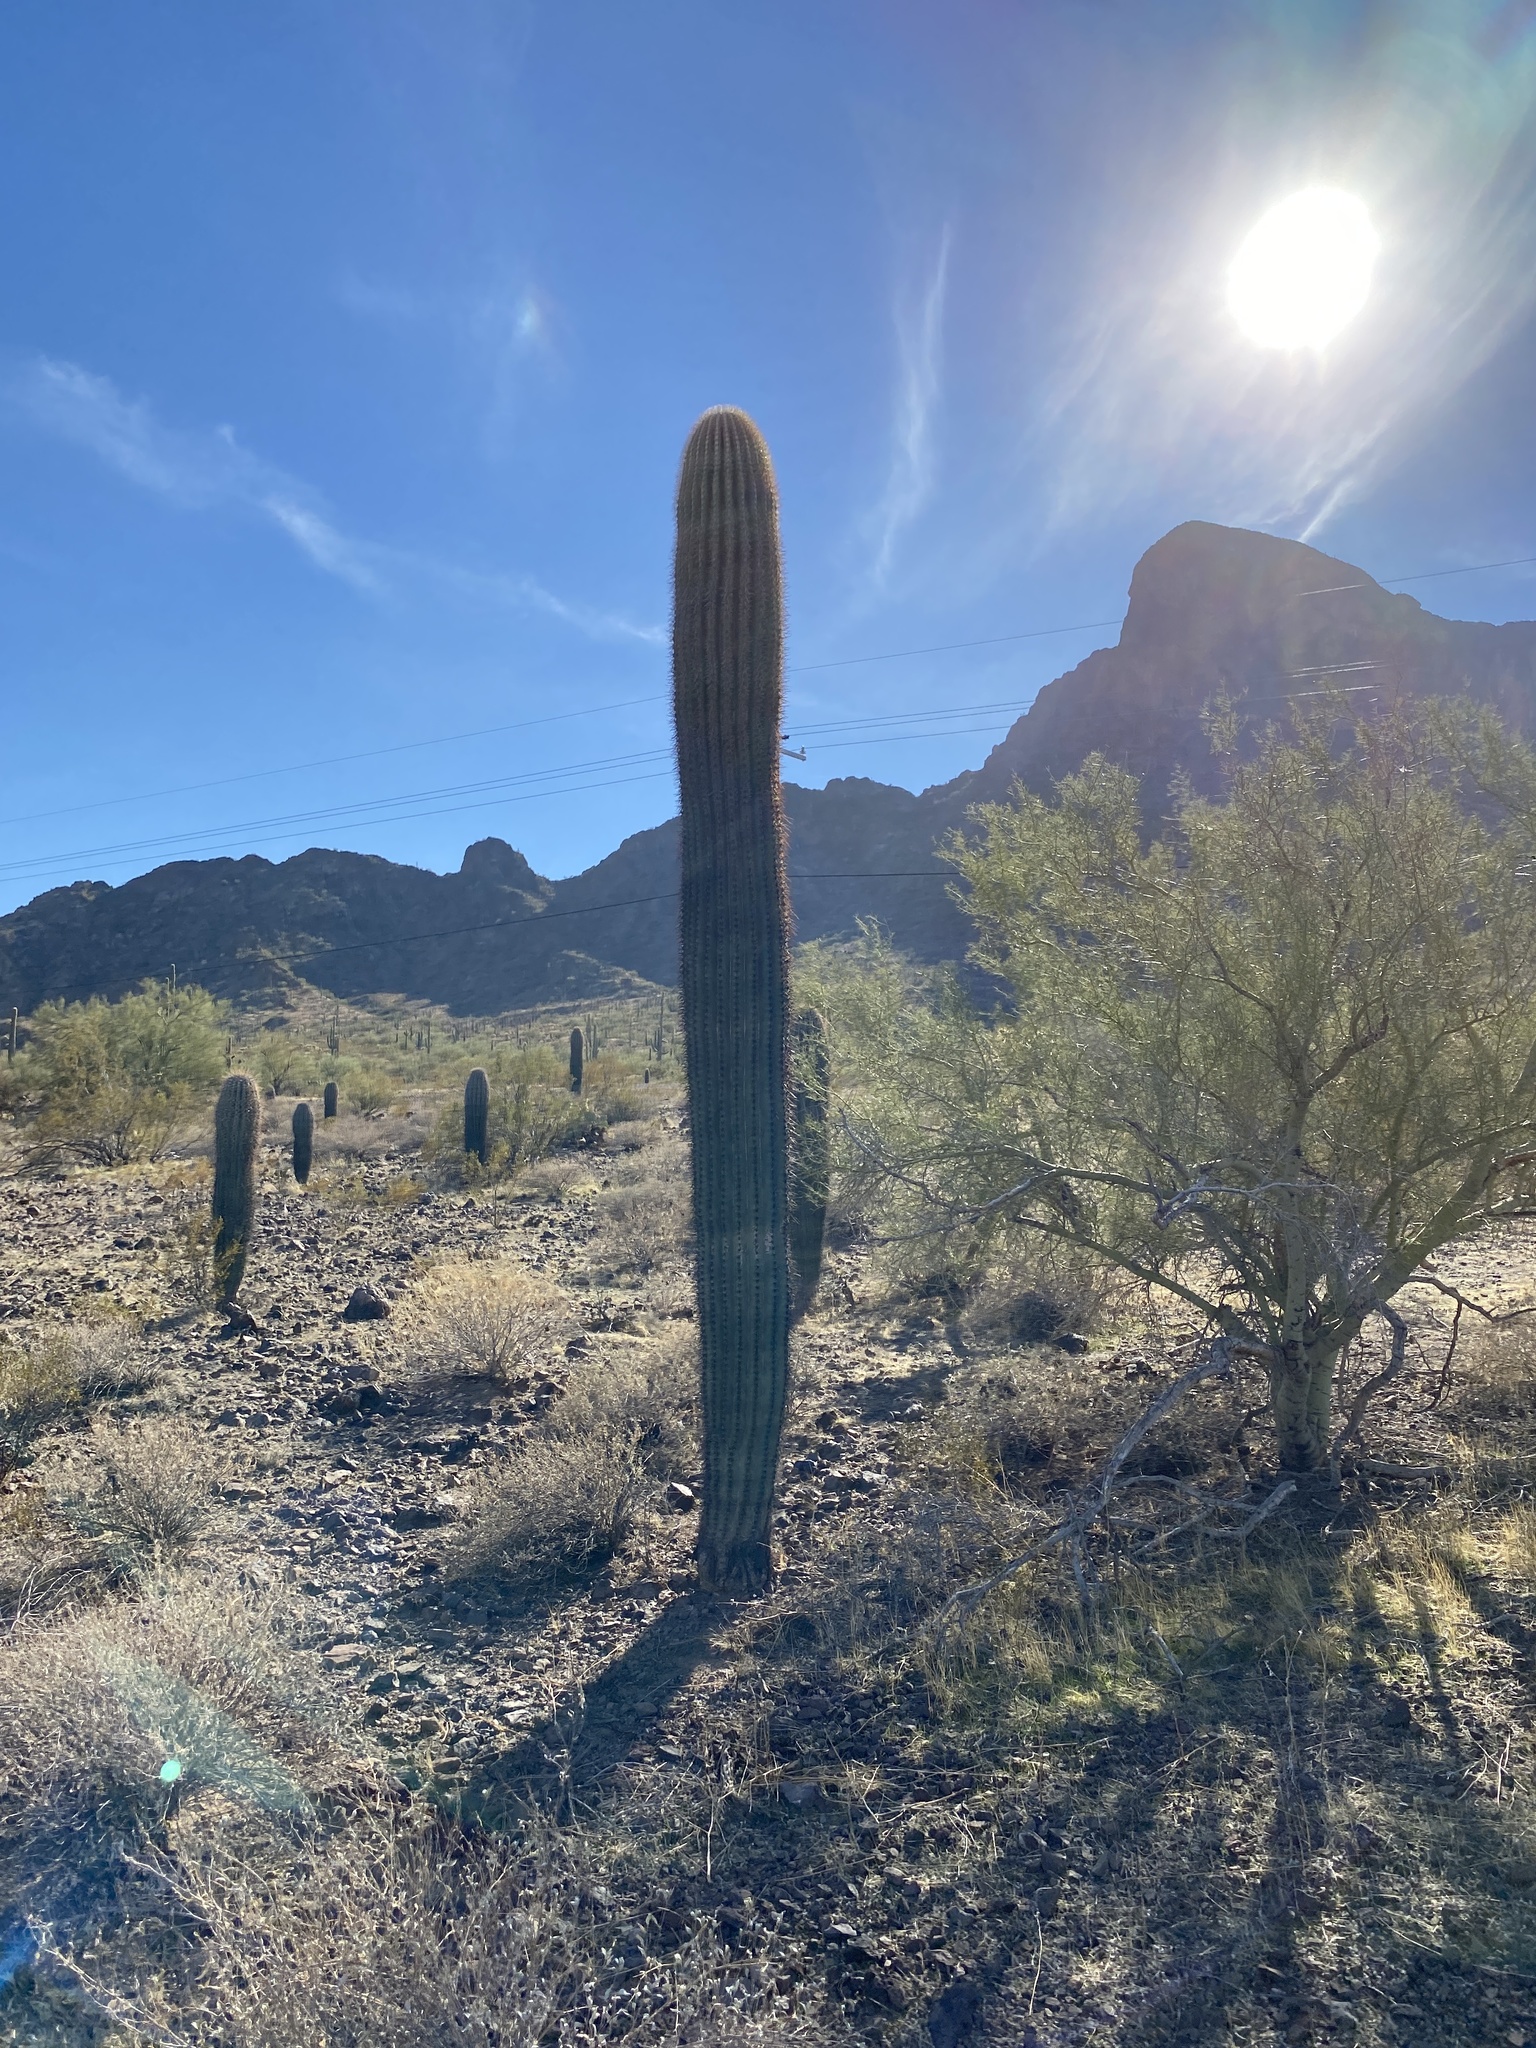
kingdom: Plantae
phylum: Tracheophyta
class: Magnoliopsida
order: Caryophyllales
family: Cactaceae
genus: Carnegiea
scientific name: Carnegiea gigantea
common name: Saguaro
